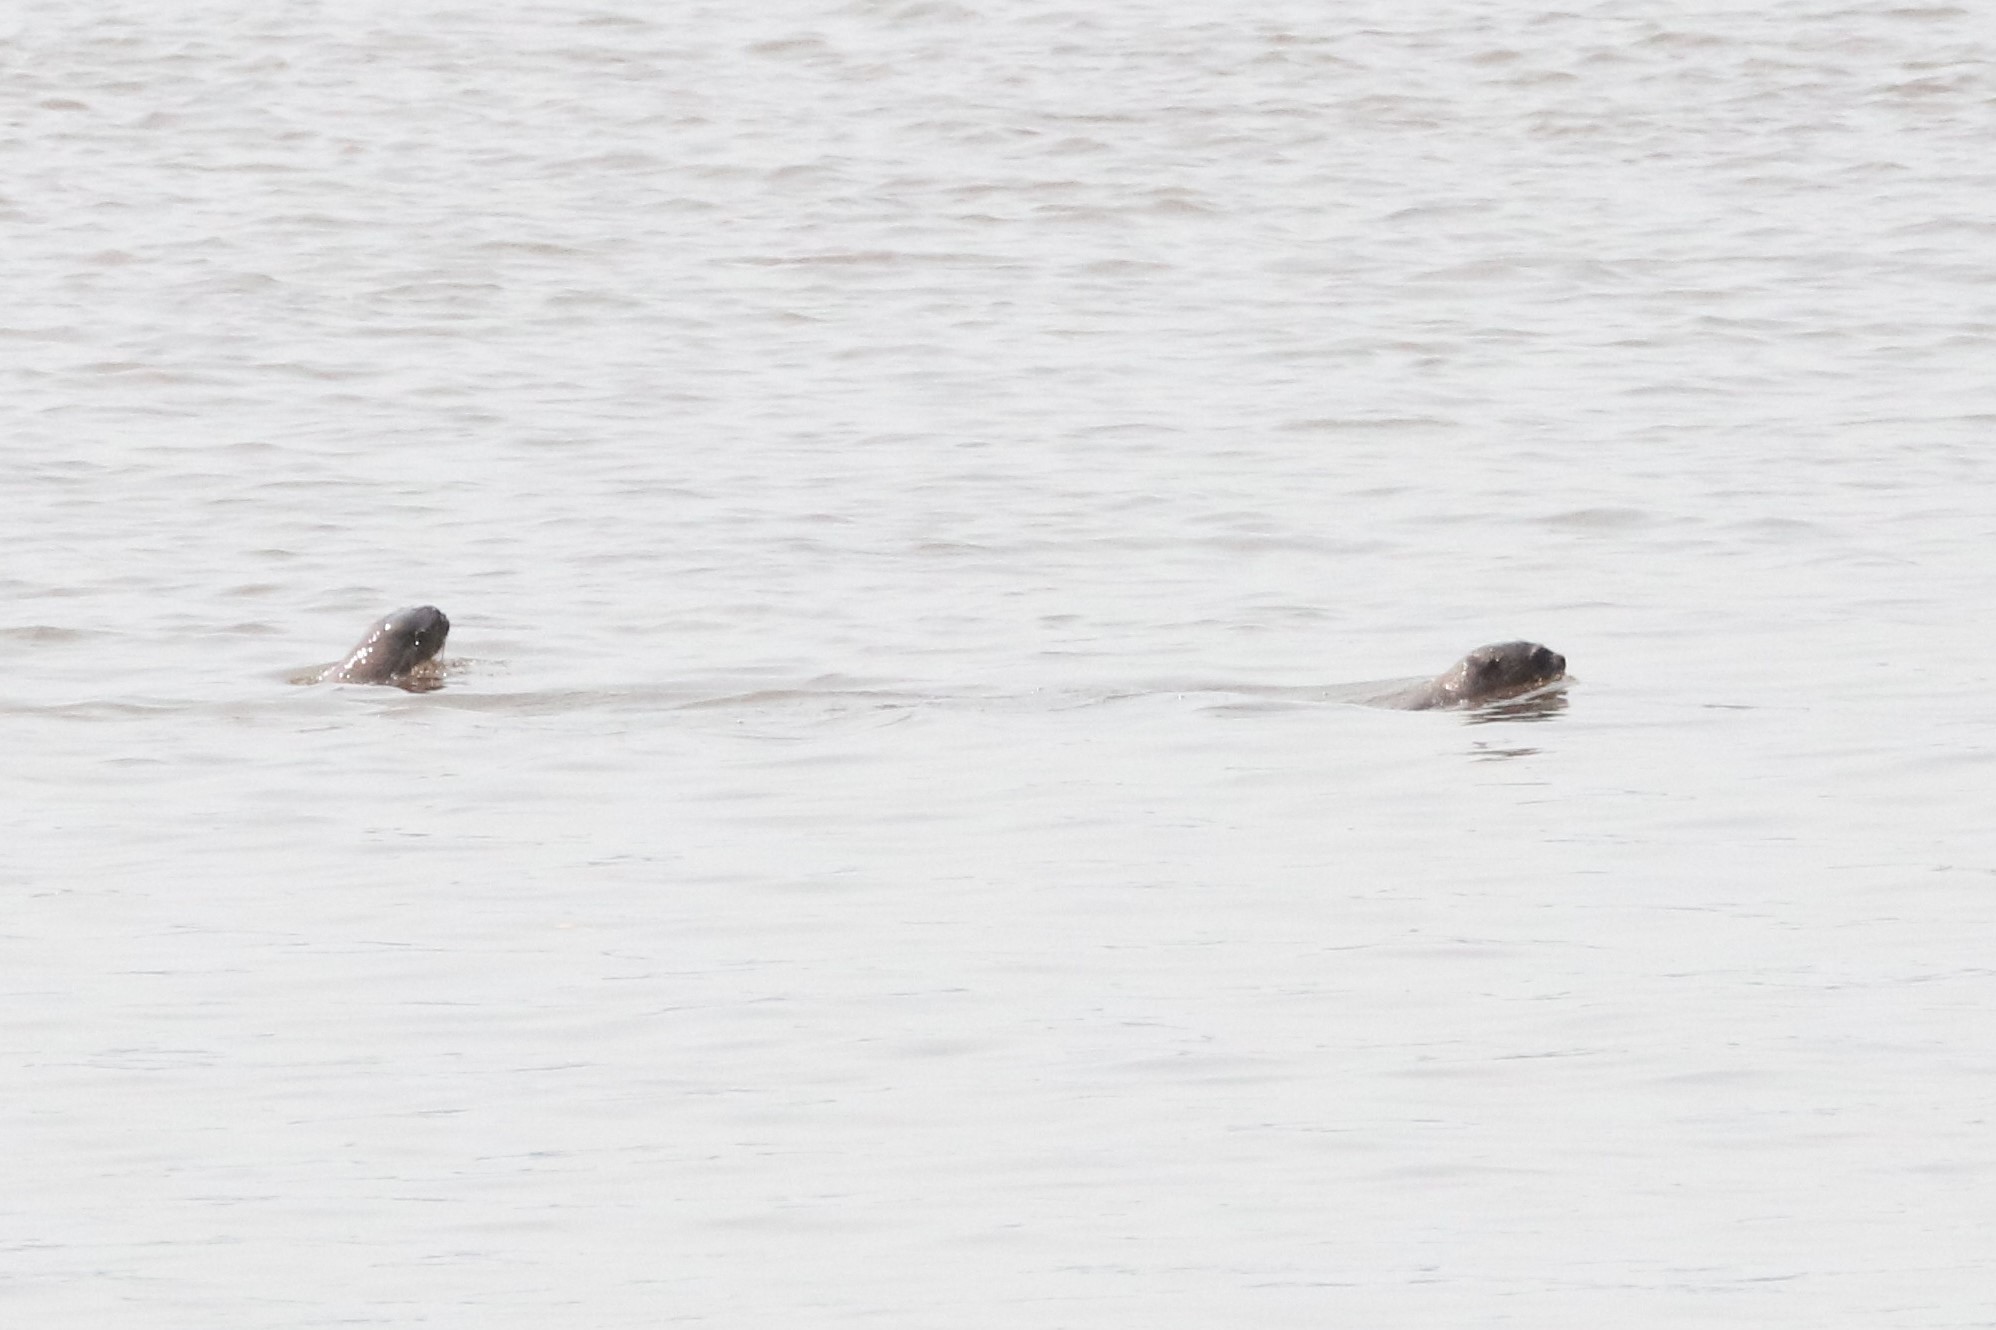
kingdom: Animalia
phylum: Chordata
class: Mammalia
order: Carnivora
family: Mustelidae
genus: Pteronura
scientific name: Pteronura brasiliensis
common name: Giant otter
